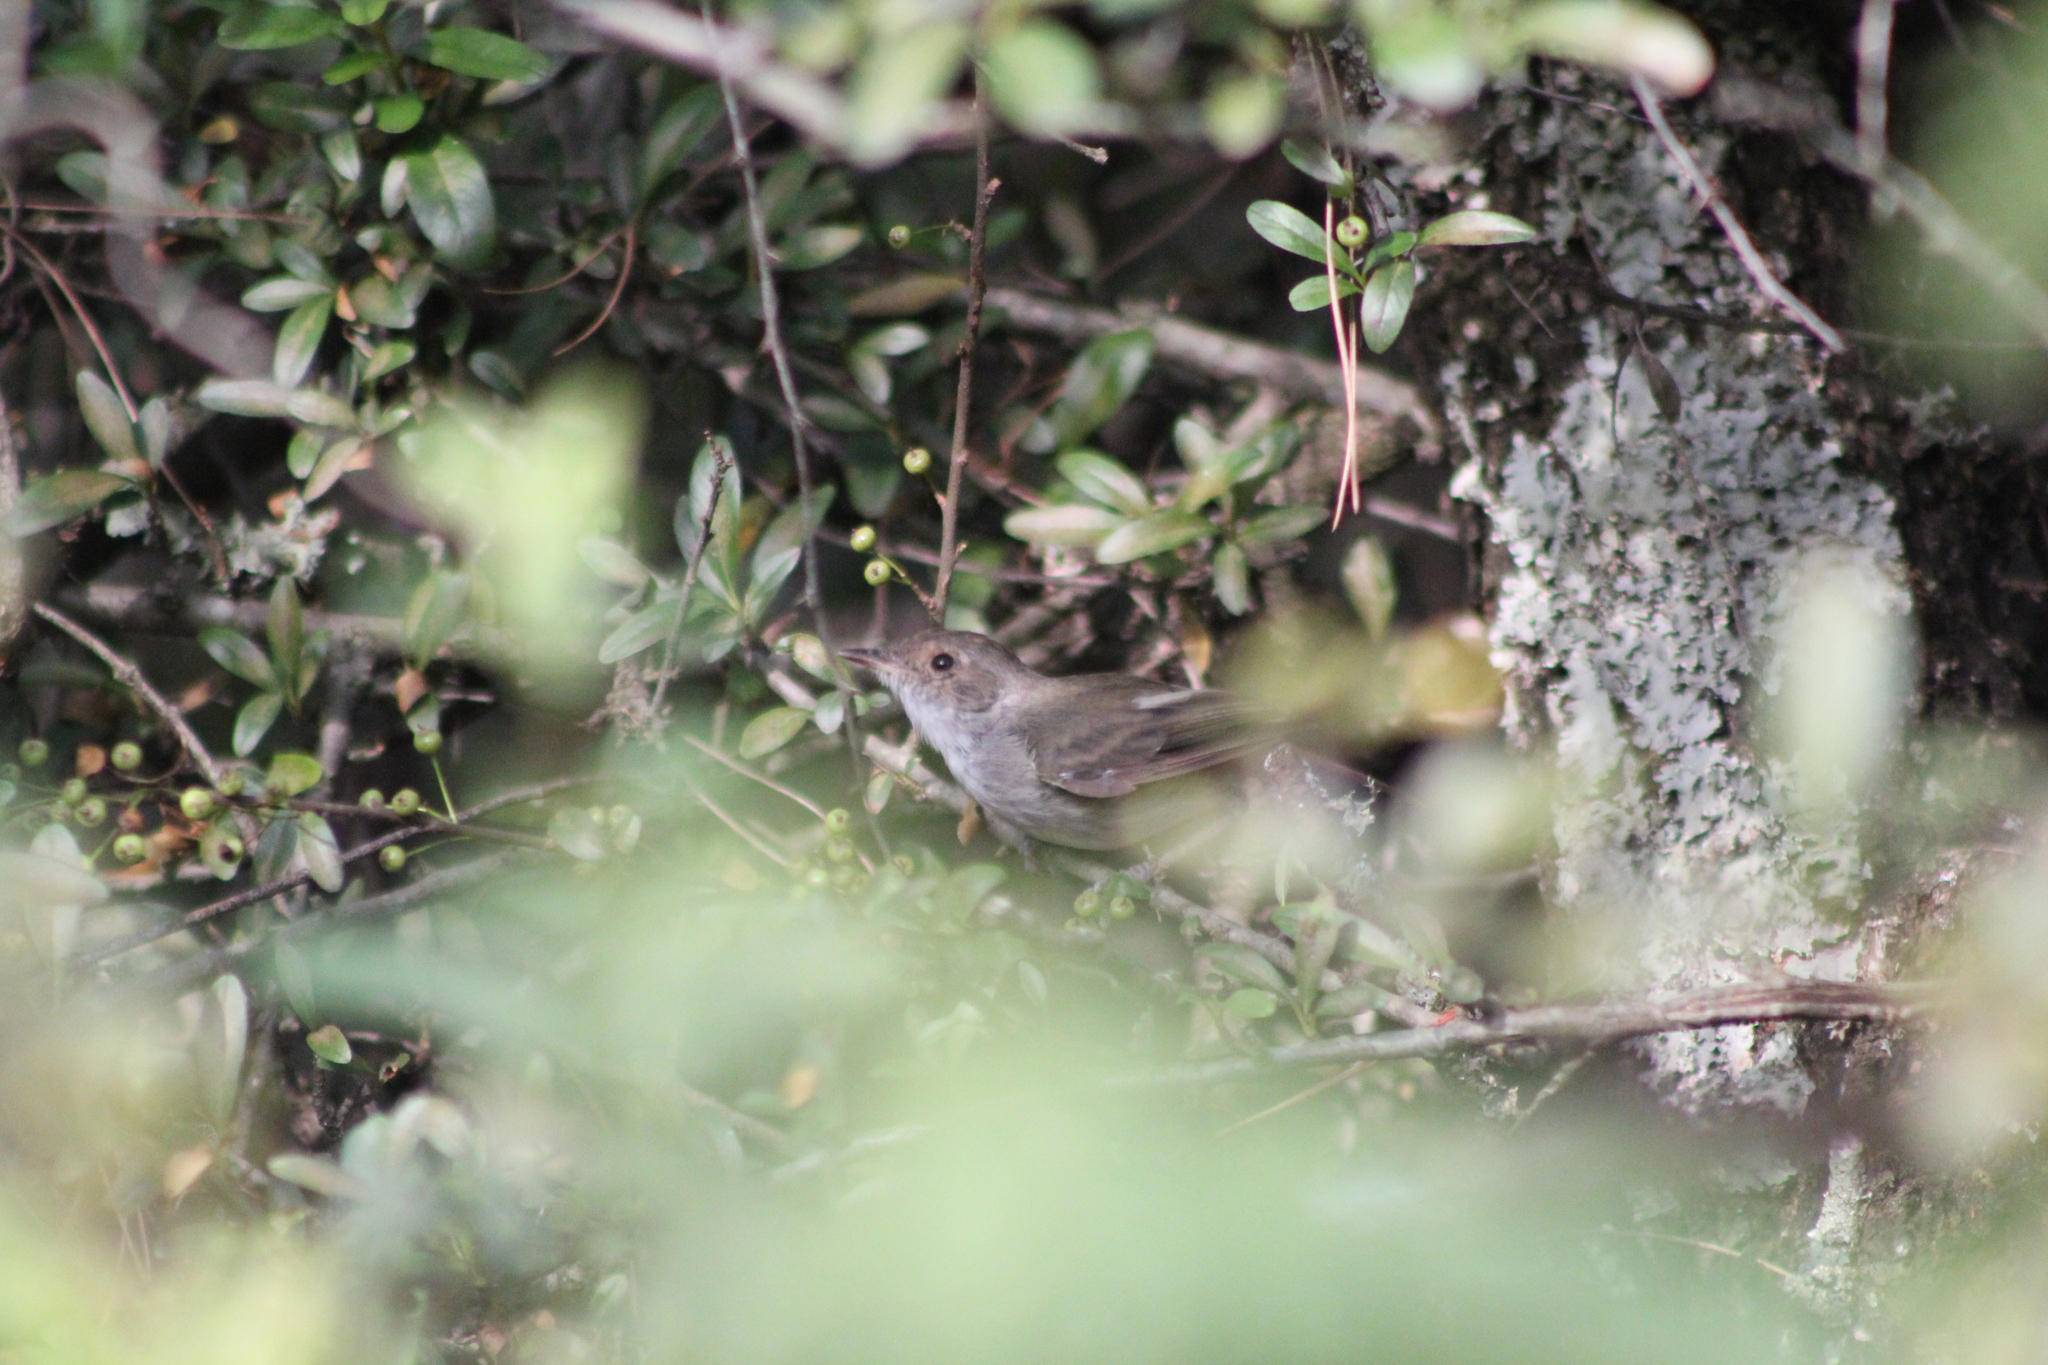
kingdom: Animalia
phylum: Chordata
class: Aves
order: Passeriformes
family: Tyrannidae
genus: Euscarthmus
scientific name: Euscarthmus meloryphus
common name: Tawny-crowned pygmy tyrant
